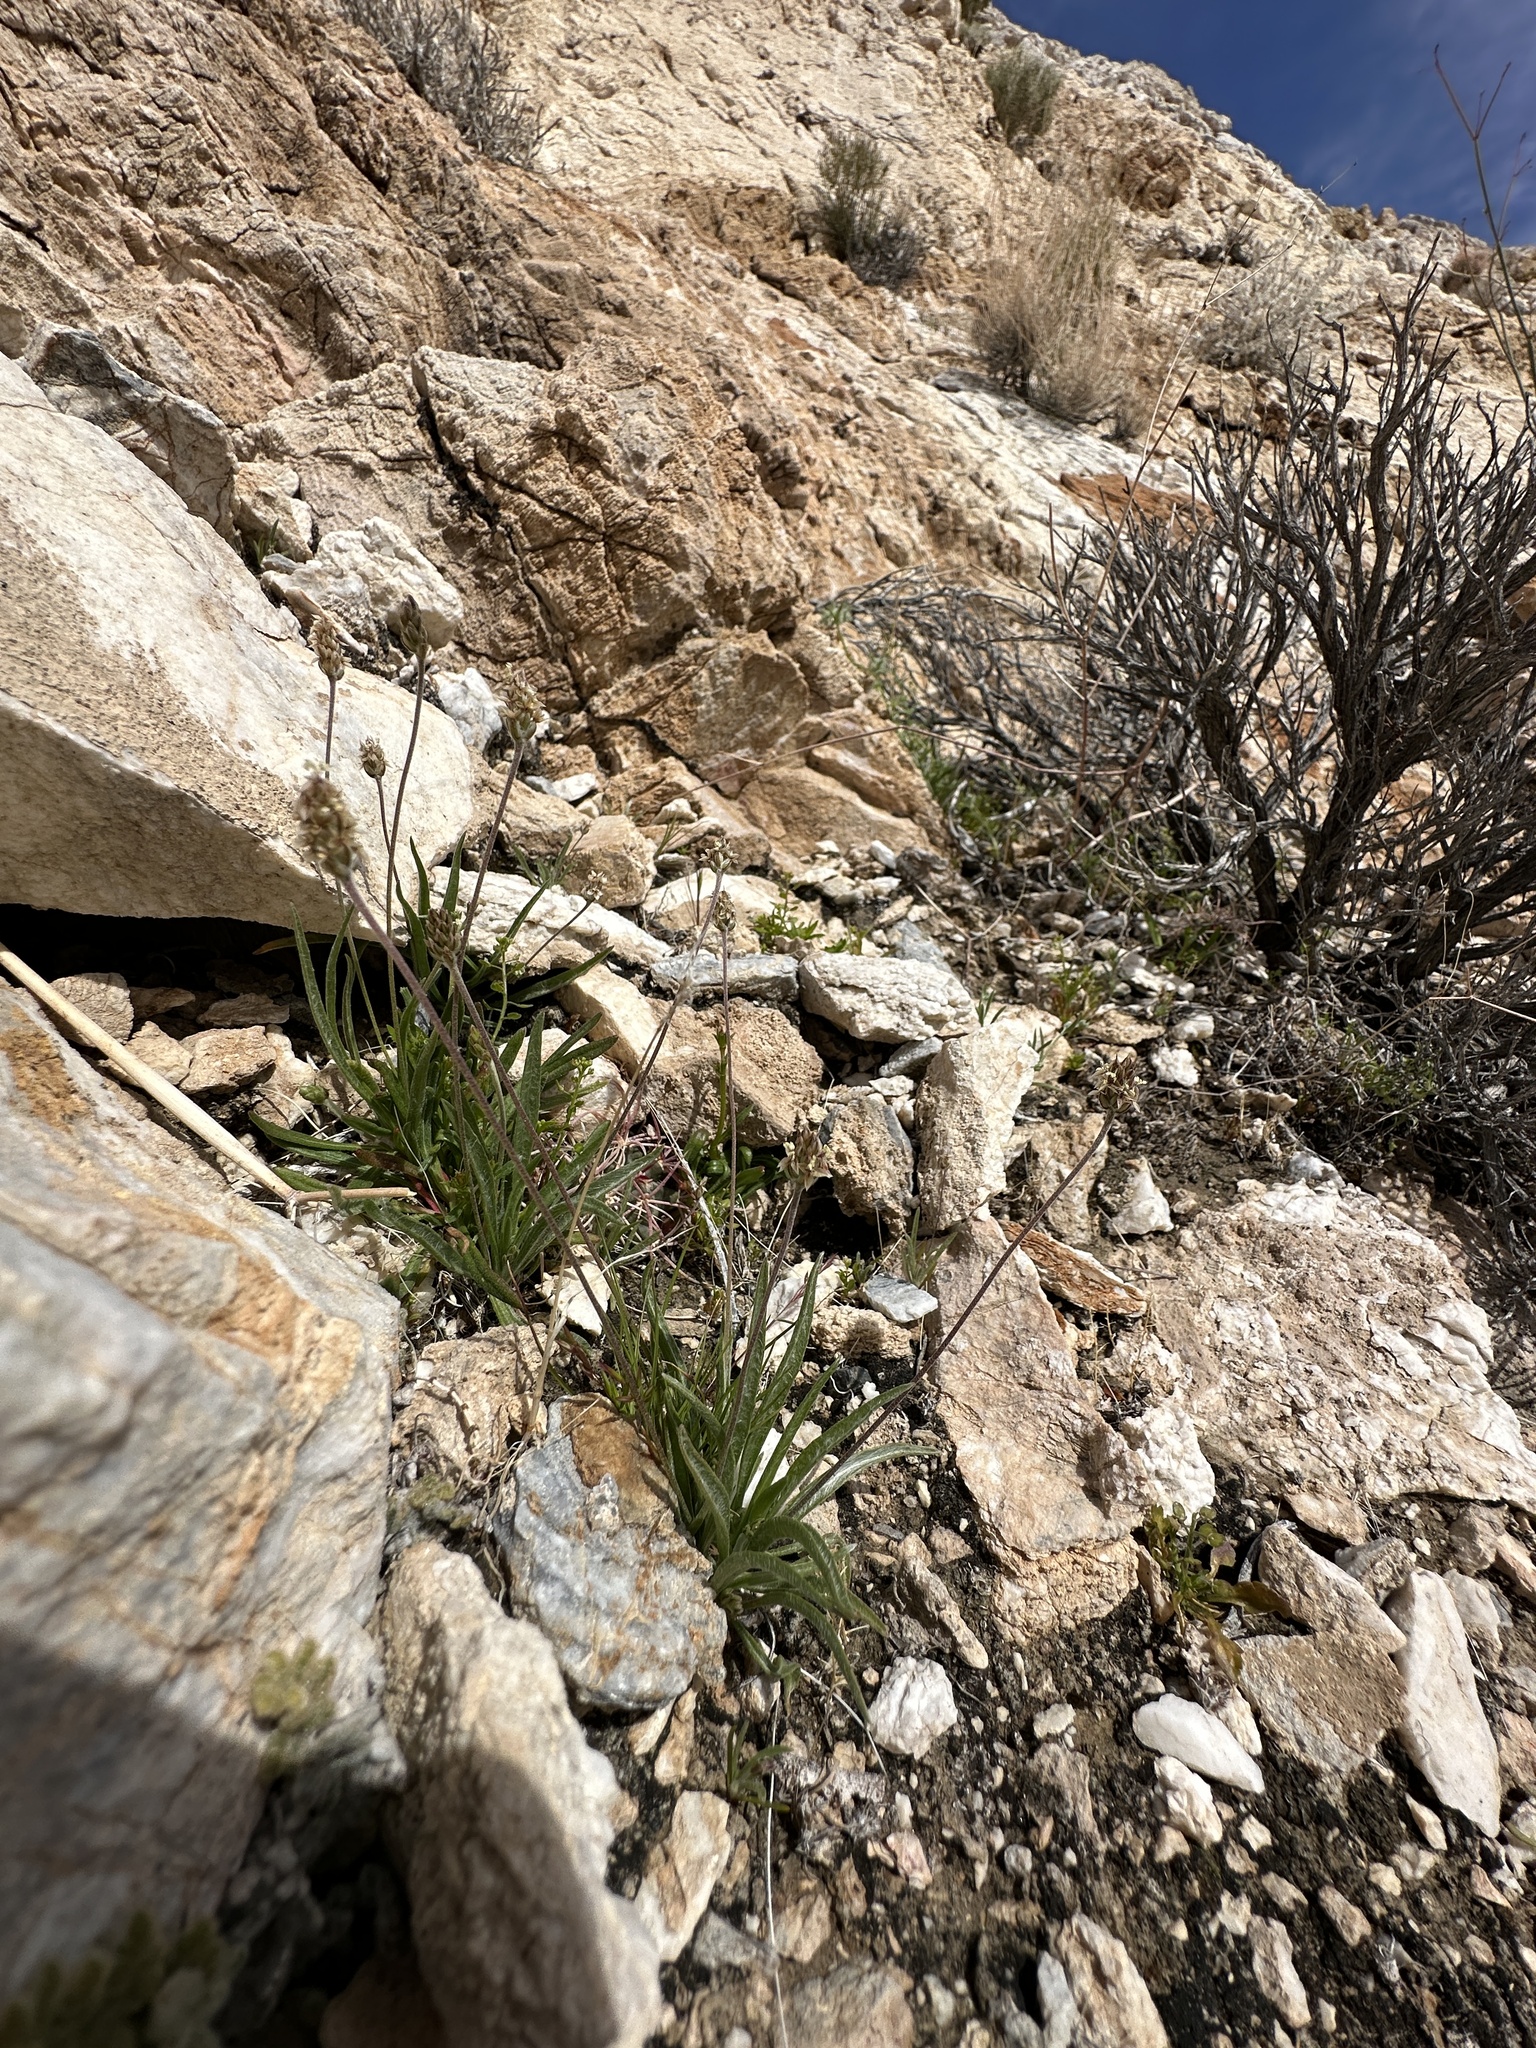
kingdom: Plantae
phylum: Tracheophyta
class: Magnoliopsida
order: Lamiales
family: Plantaginaceae
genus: Plantago
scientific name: Plantago ovata
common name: Blond plantain
